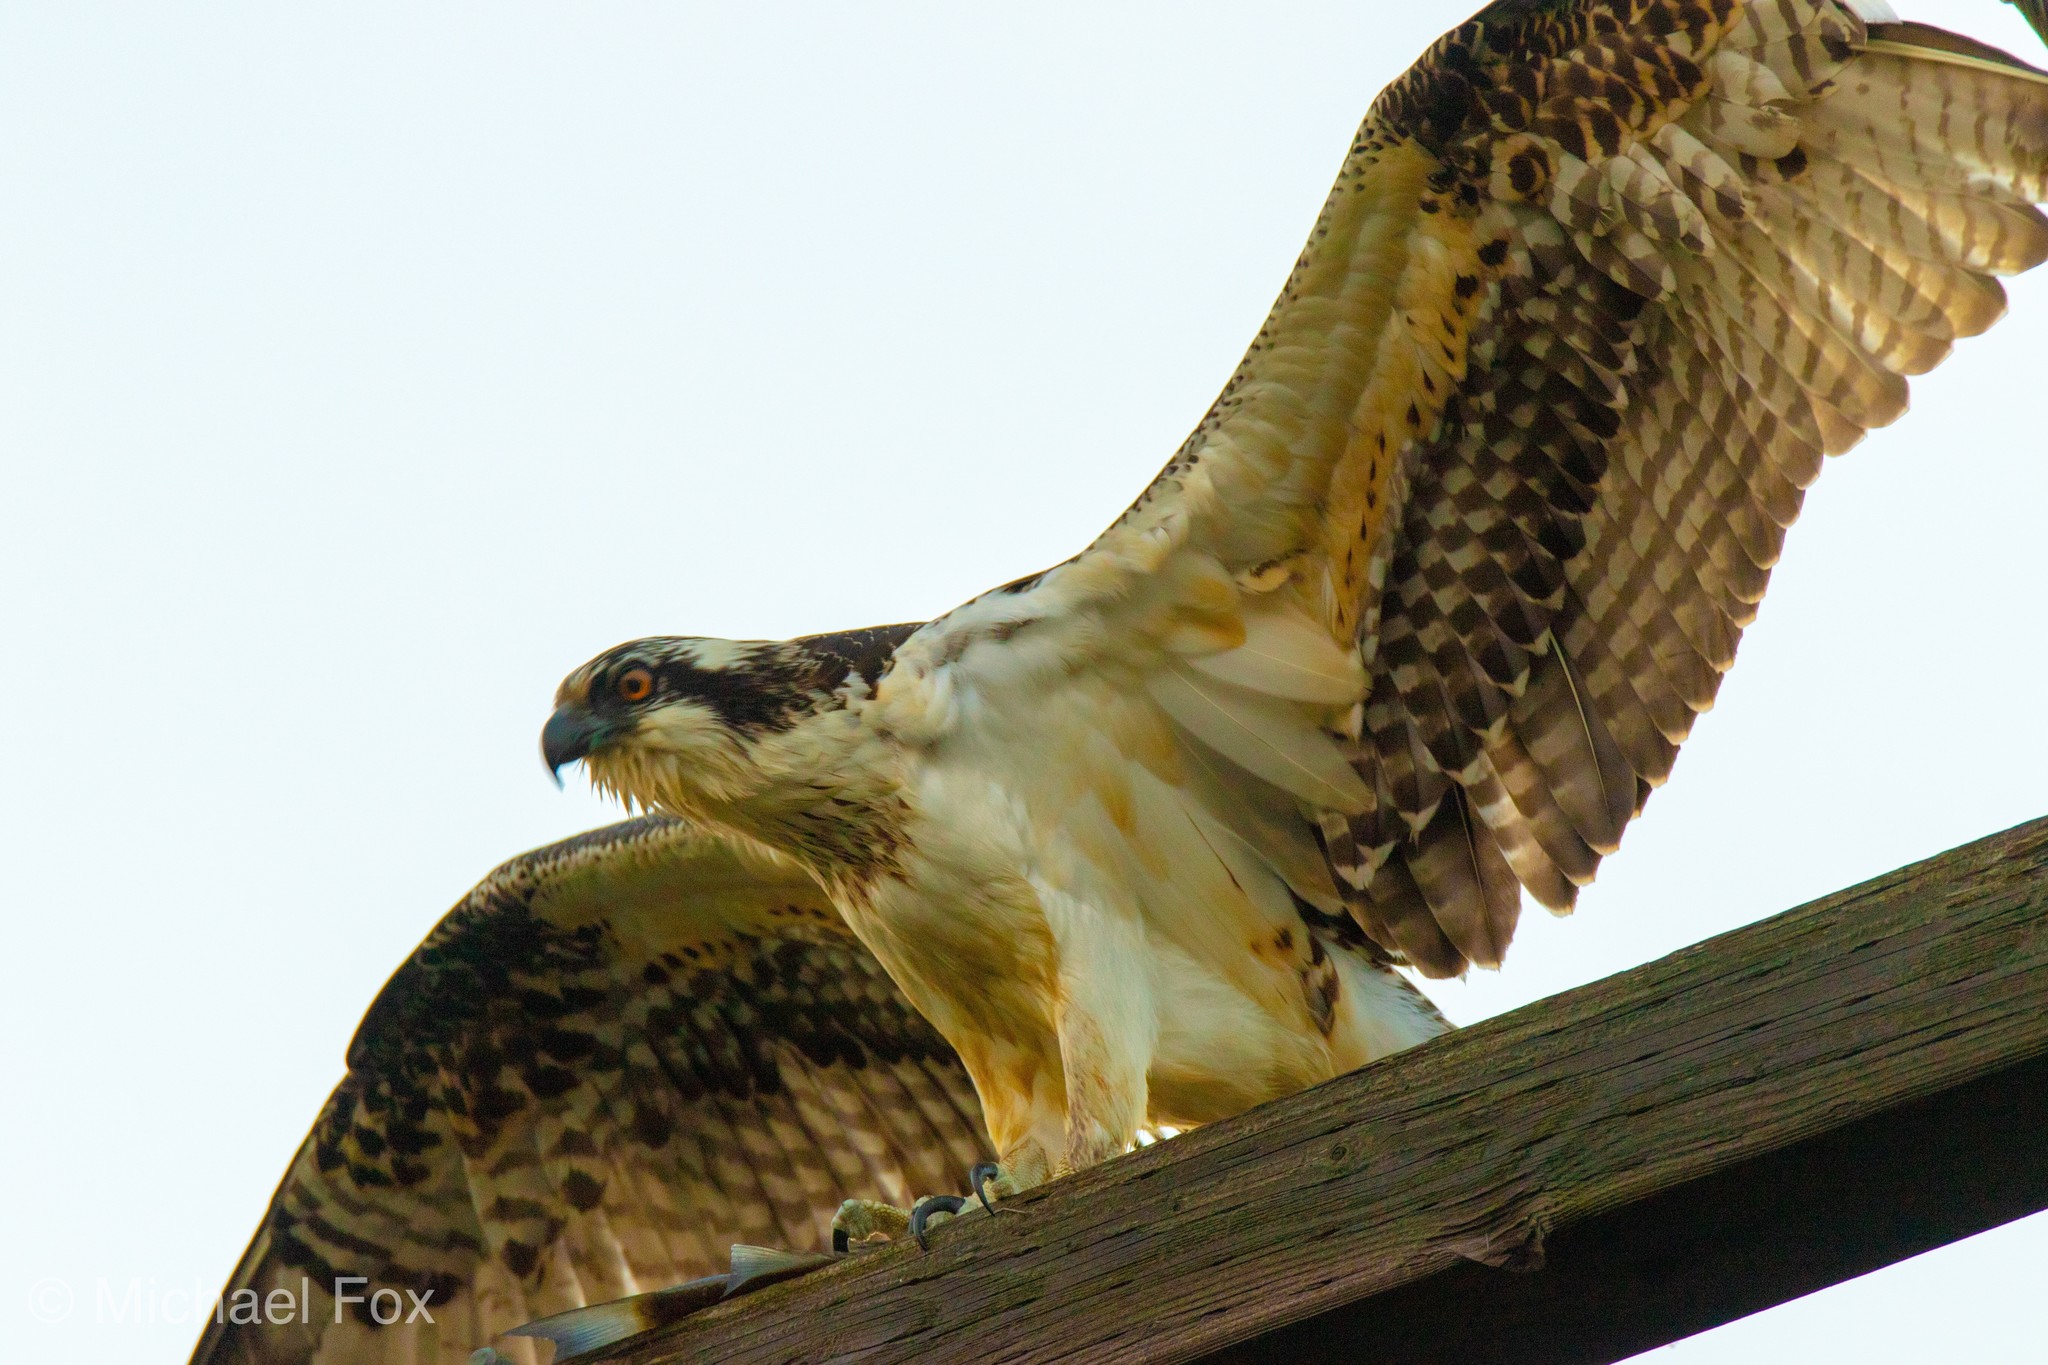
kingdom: Animalia
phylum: Chordata
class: Aves
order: Accipitriformes
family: Pandionidae
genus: Pandion
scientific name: Pandion haliaetus
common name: Osprey
